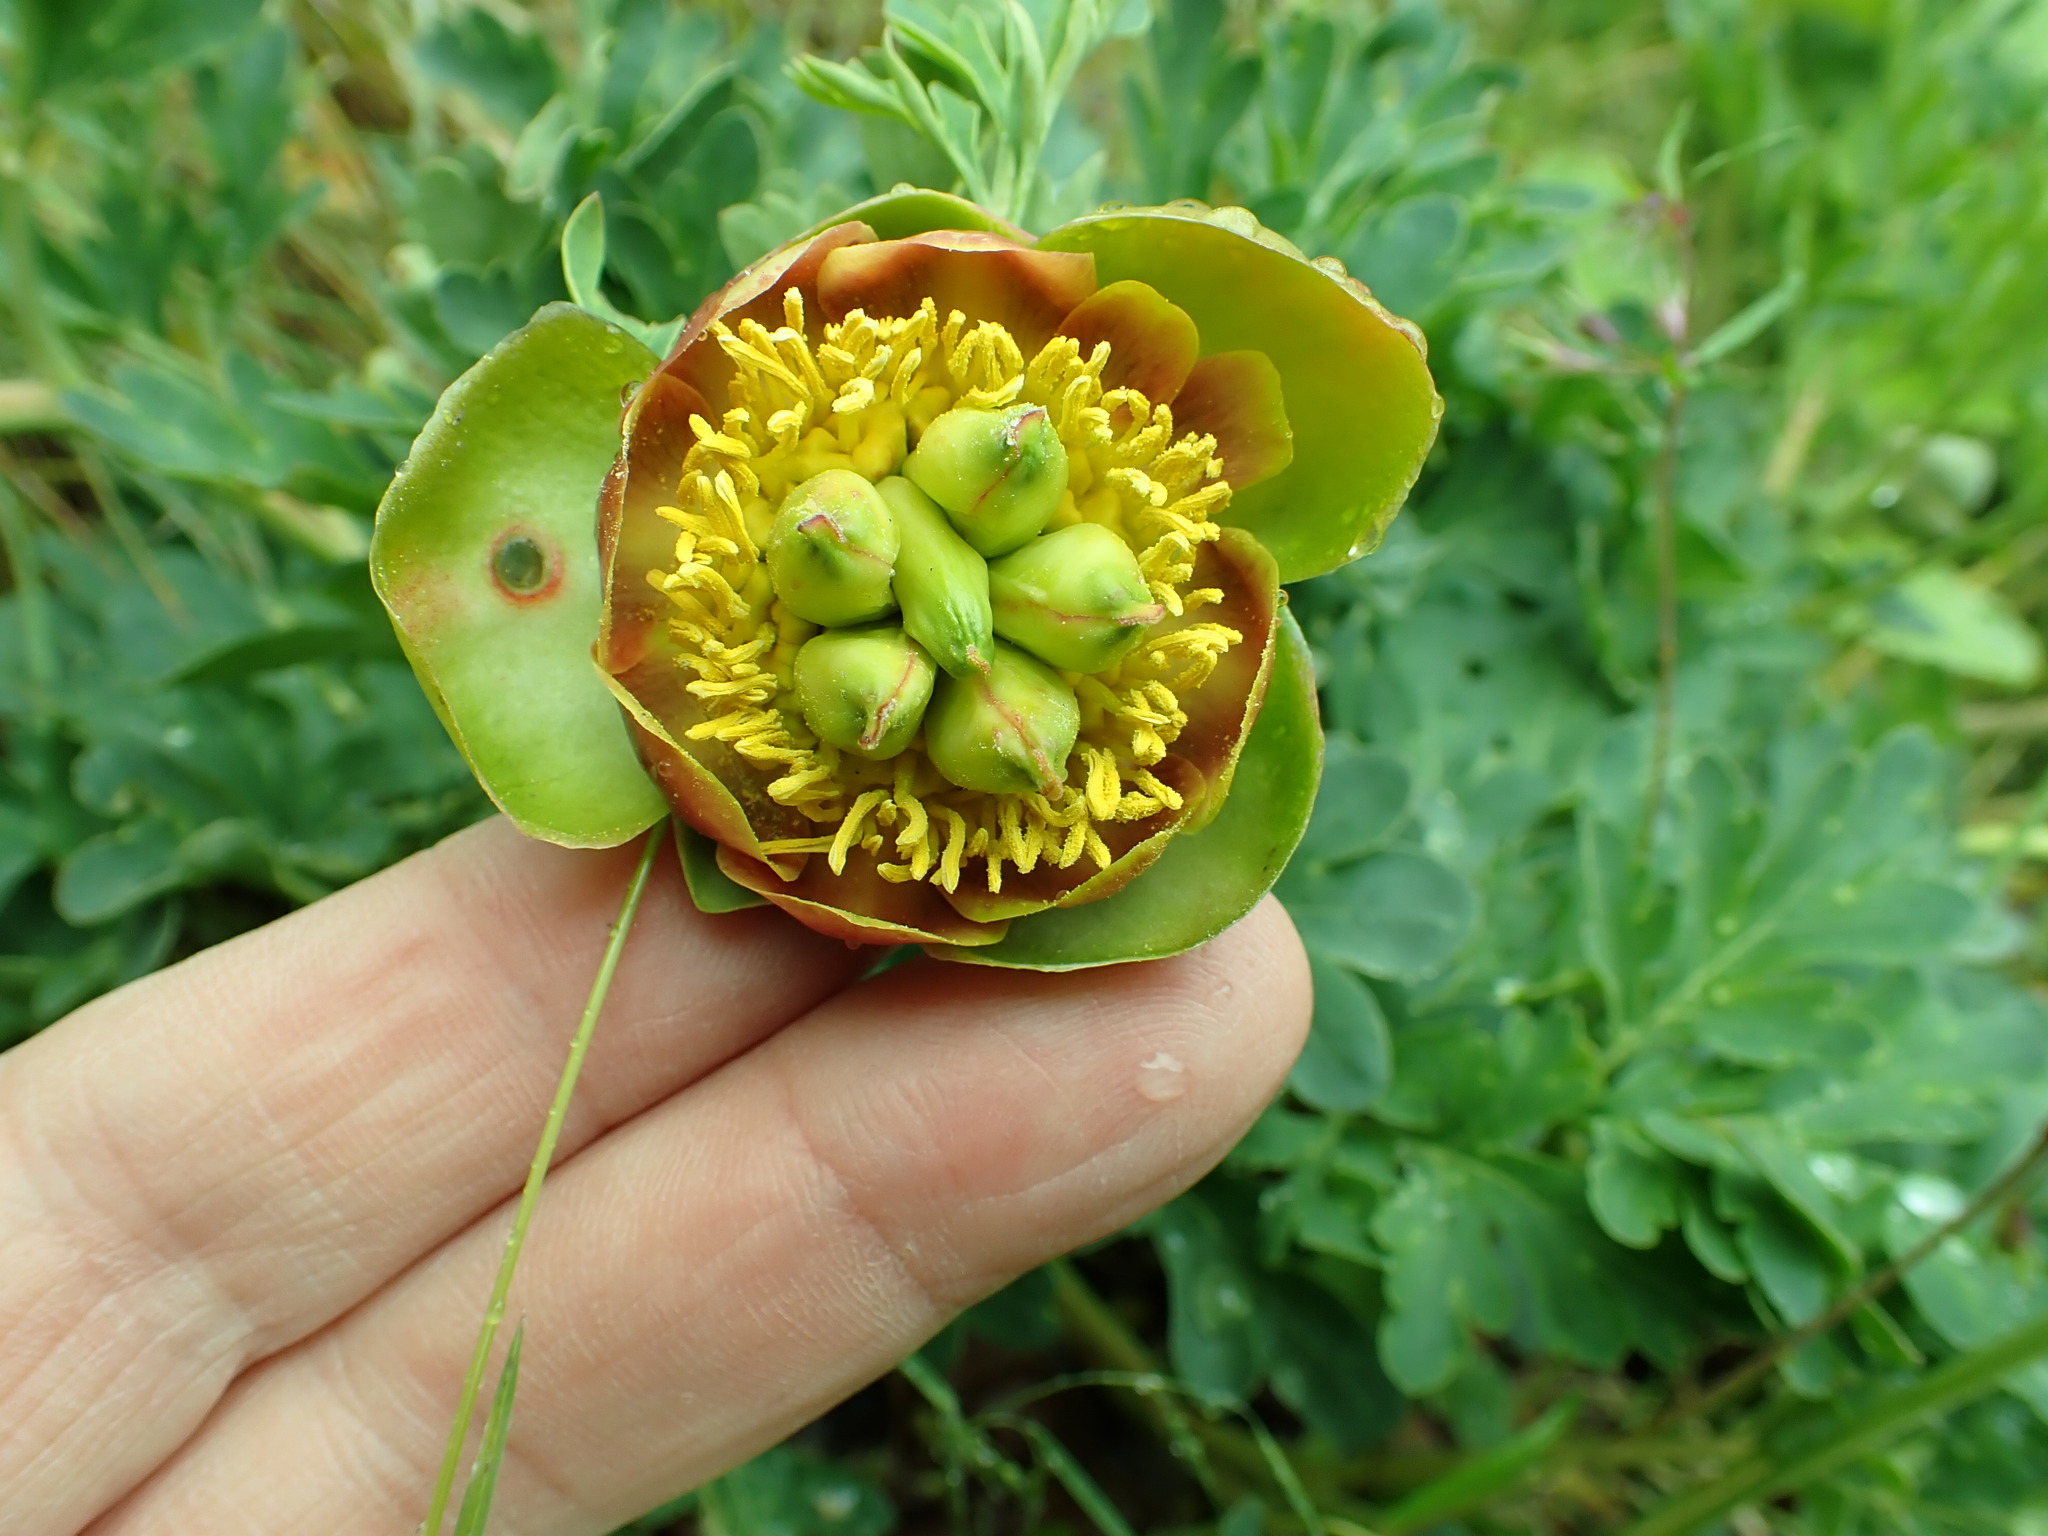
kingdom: Plantae
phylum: Tracheophyta
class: Magnoliopsida
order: Saxifragales
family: Paeoniaceae
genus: Paeonia
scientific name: Paeonia brownii
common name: Brown's peony
